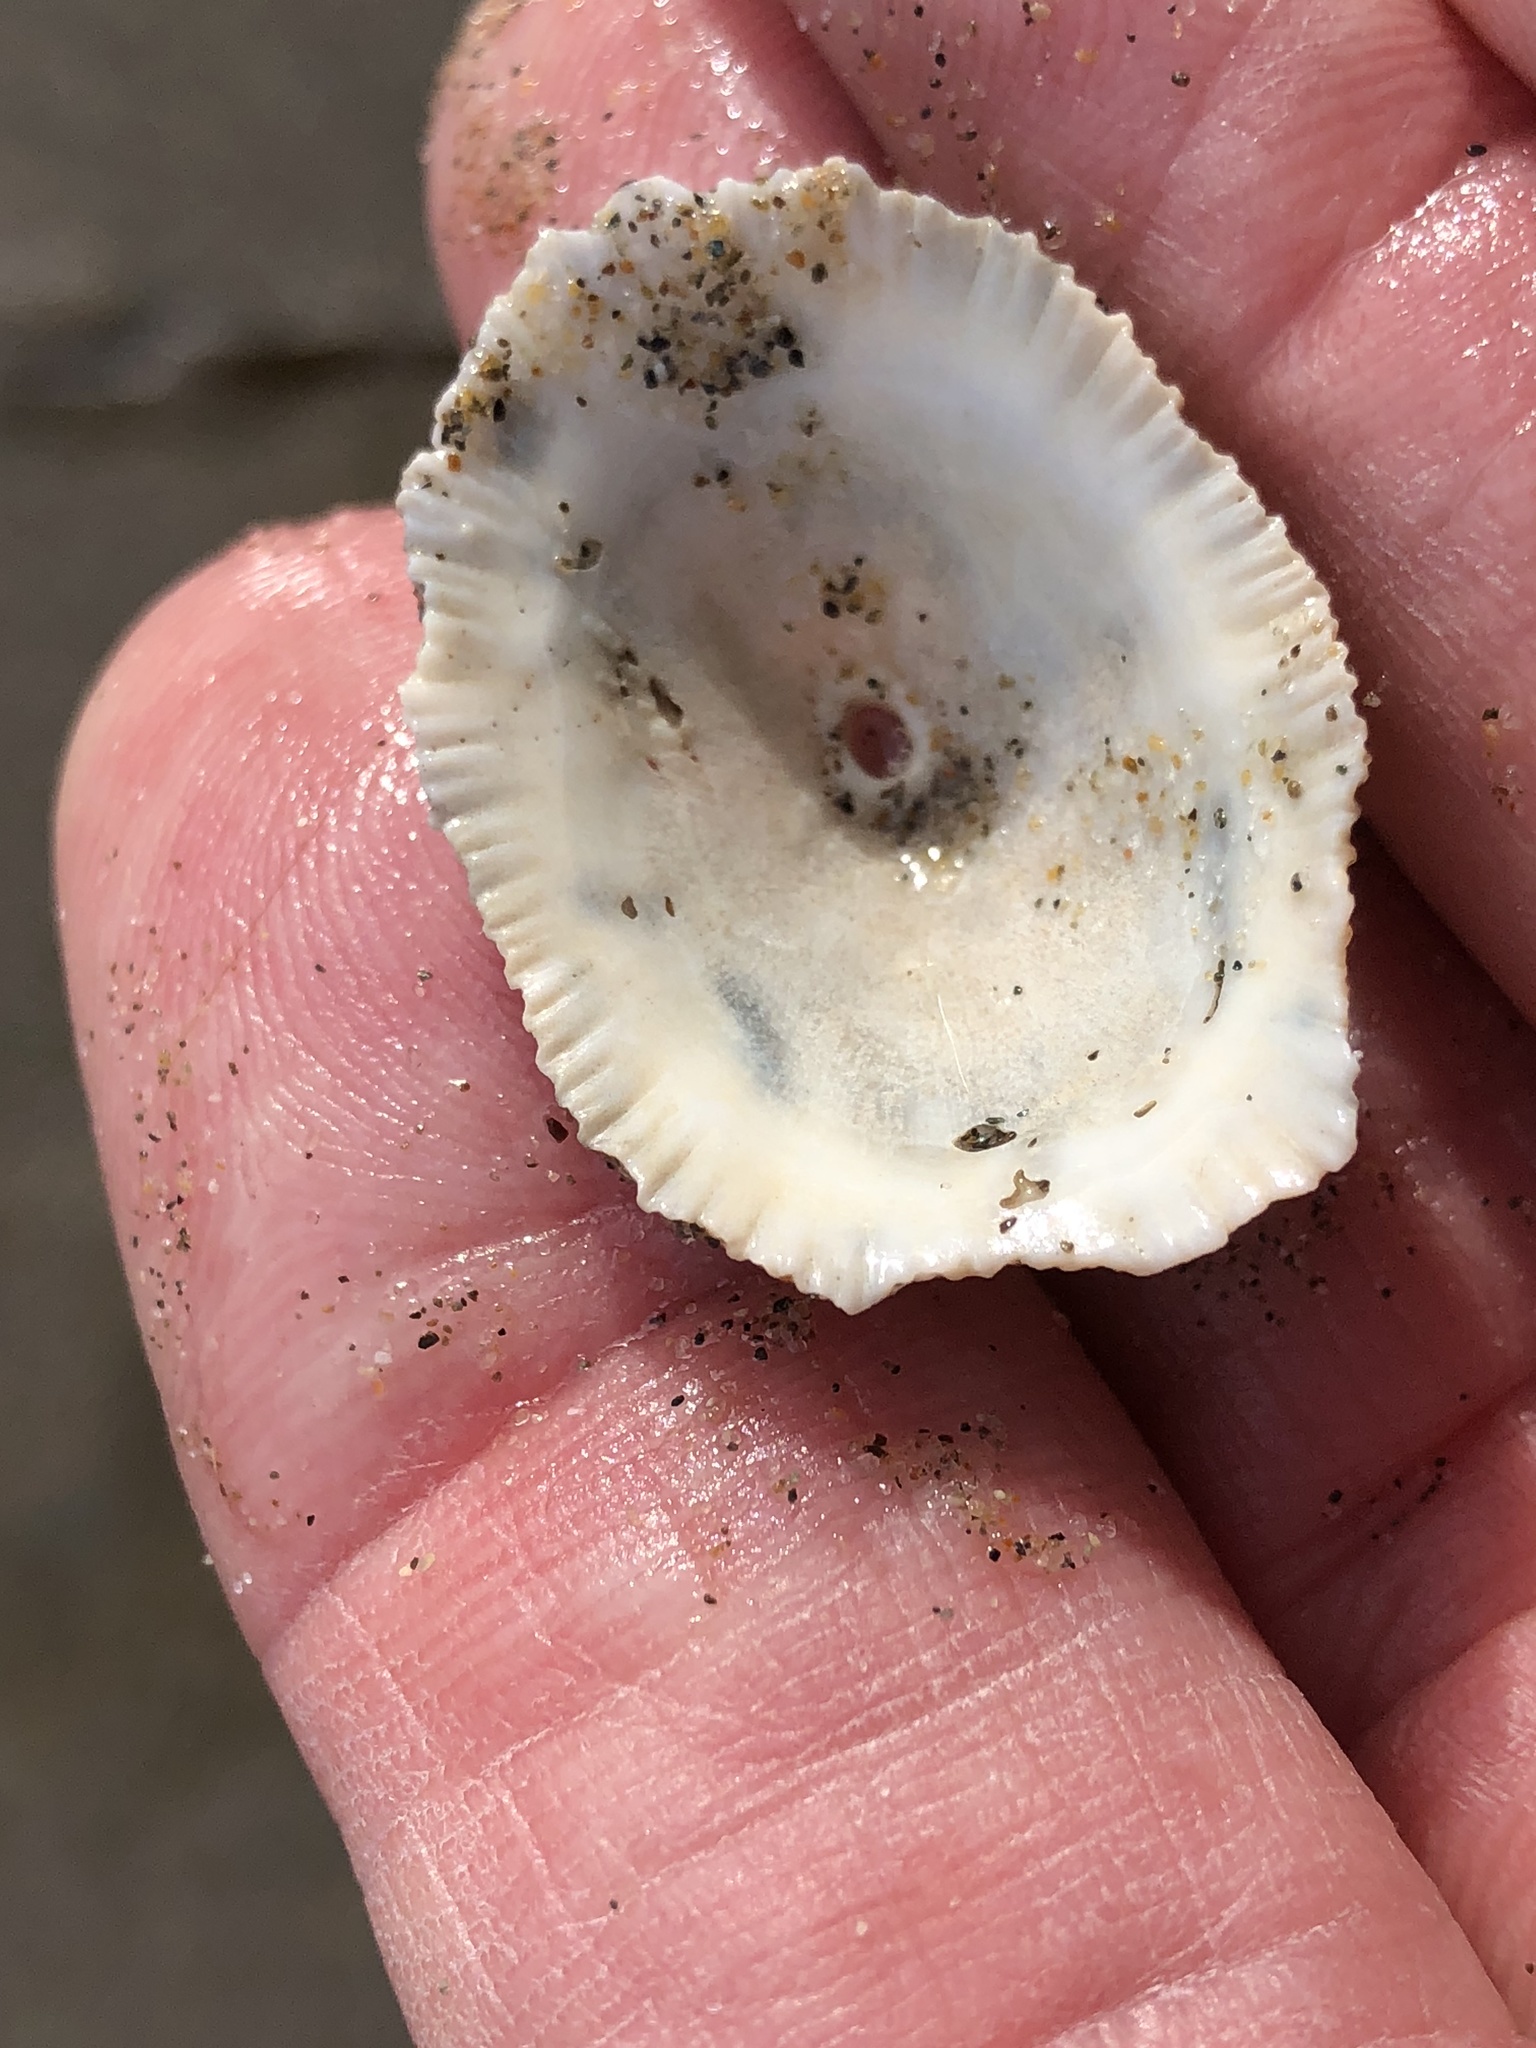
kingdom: Animalia
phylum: Mollusca
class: Gastropoda
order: Lepetellida
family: Fissurellidae
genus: Diodora
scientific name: Diodora aspera
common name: Rough keyhole limpet
